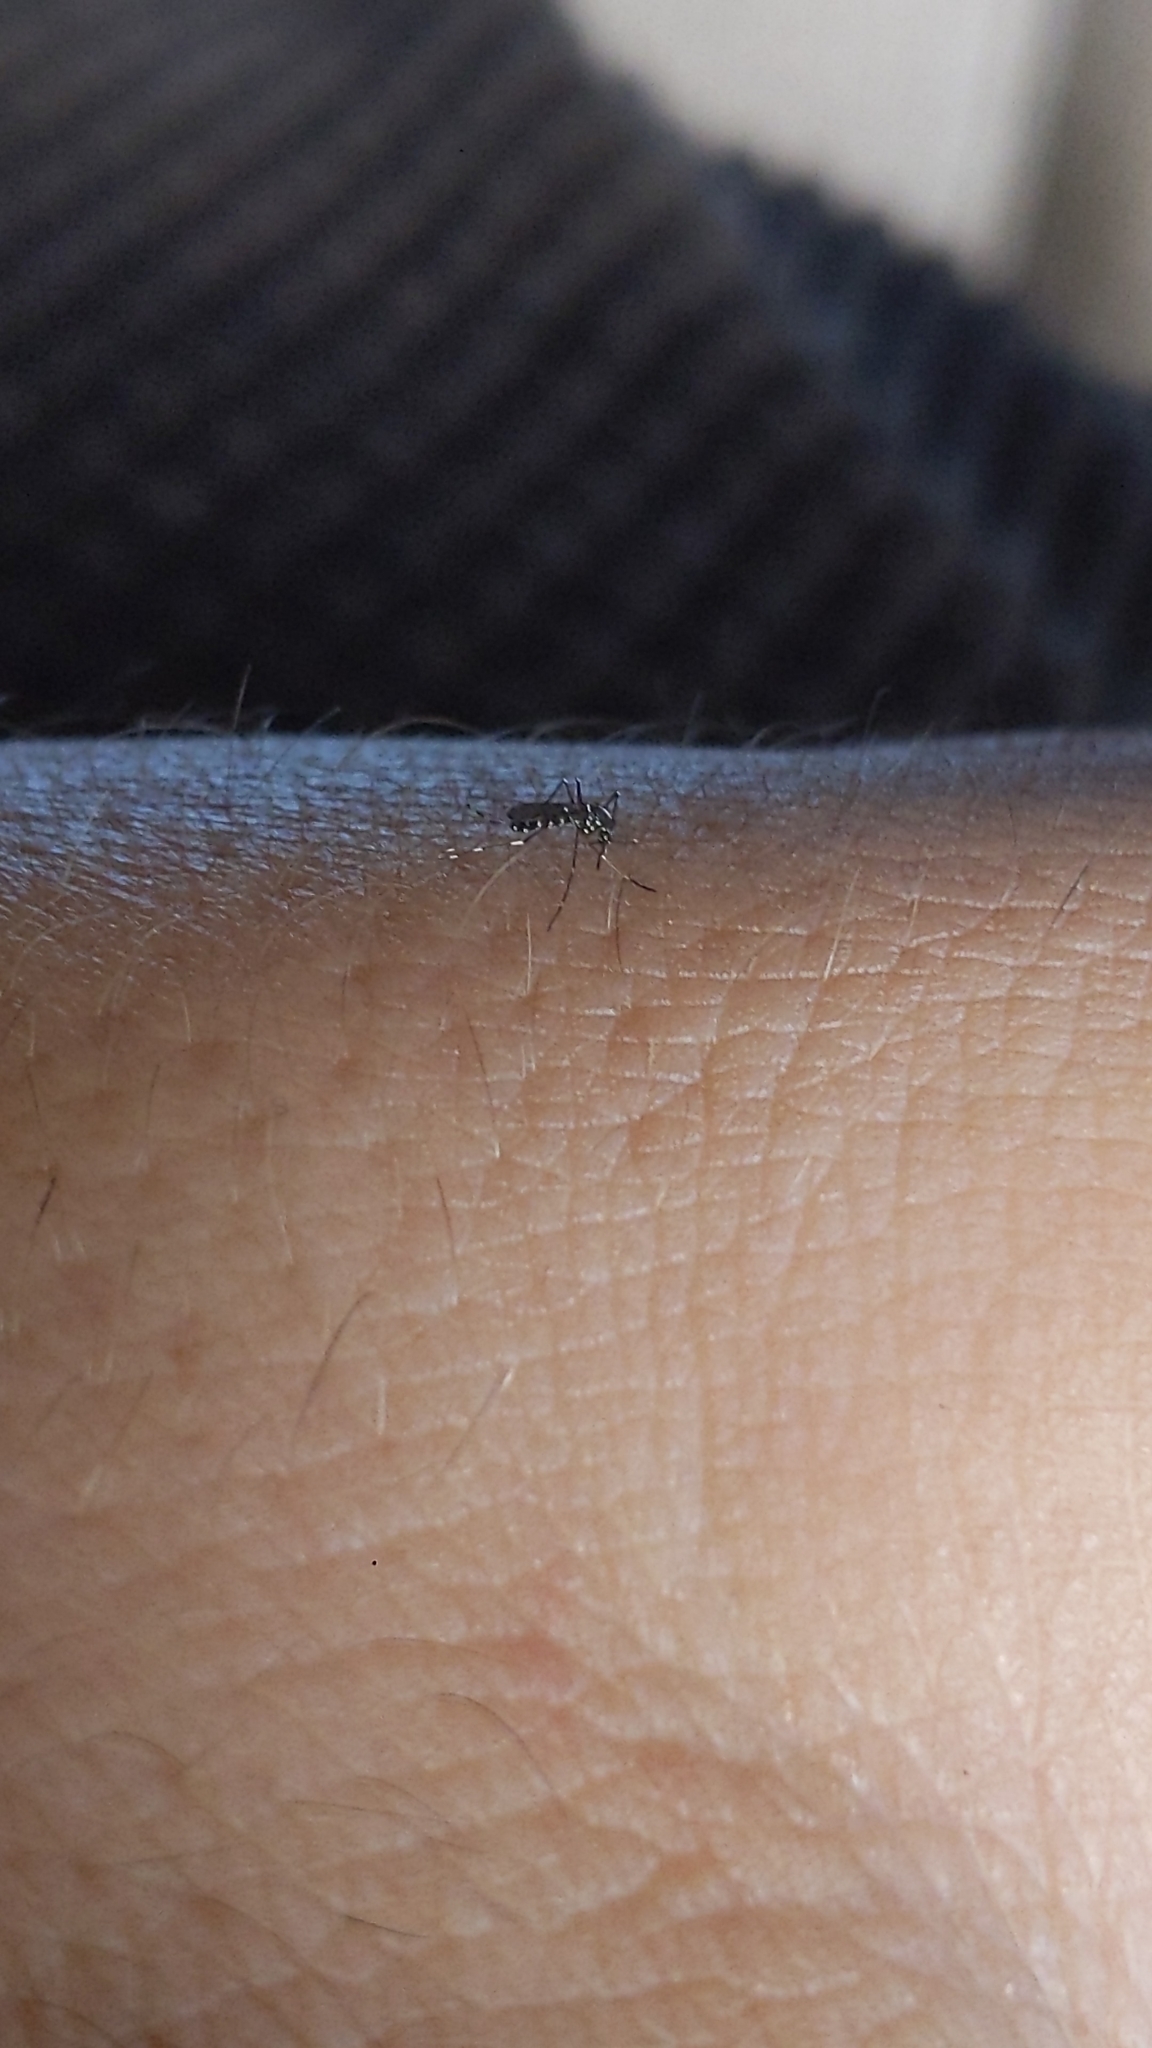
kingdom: Animalia
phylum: Arthropoda
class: Insecta
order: Diptera
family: Culicidae
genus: Aedes
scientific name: Aedes albopictus
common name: Tiger mosquito
